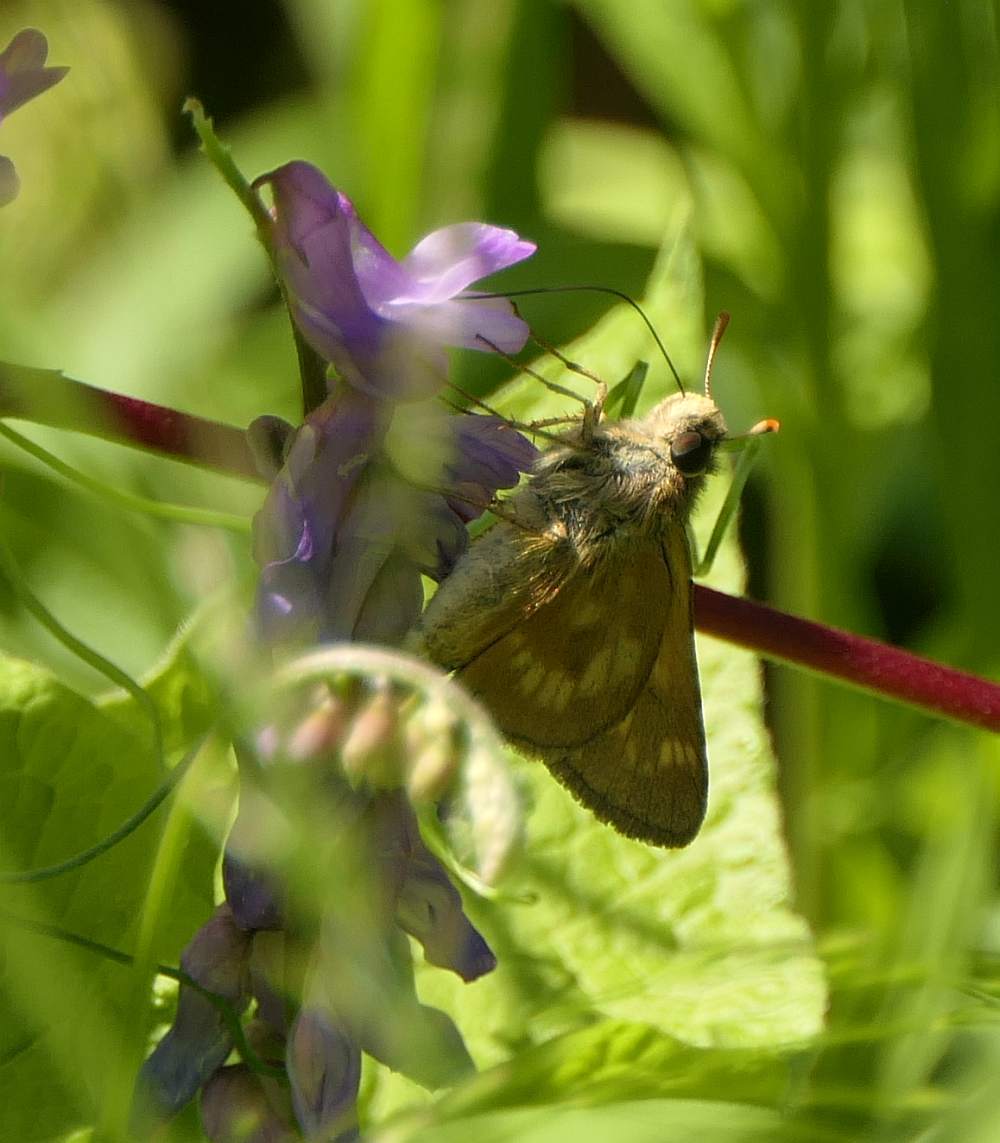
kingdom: Animalia
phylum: Arthropoda
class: Insecta
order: Lepidoptera
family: Hesperiidae
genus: Polites
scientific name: Polites mystic
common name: Long dash
